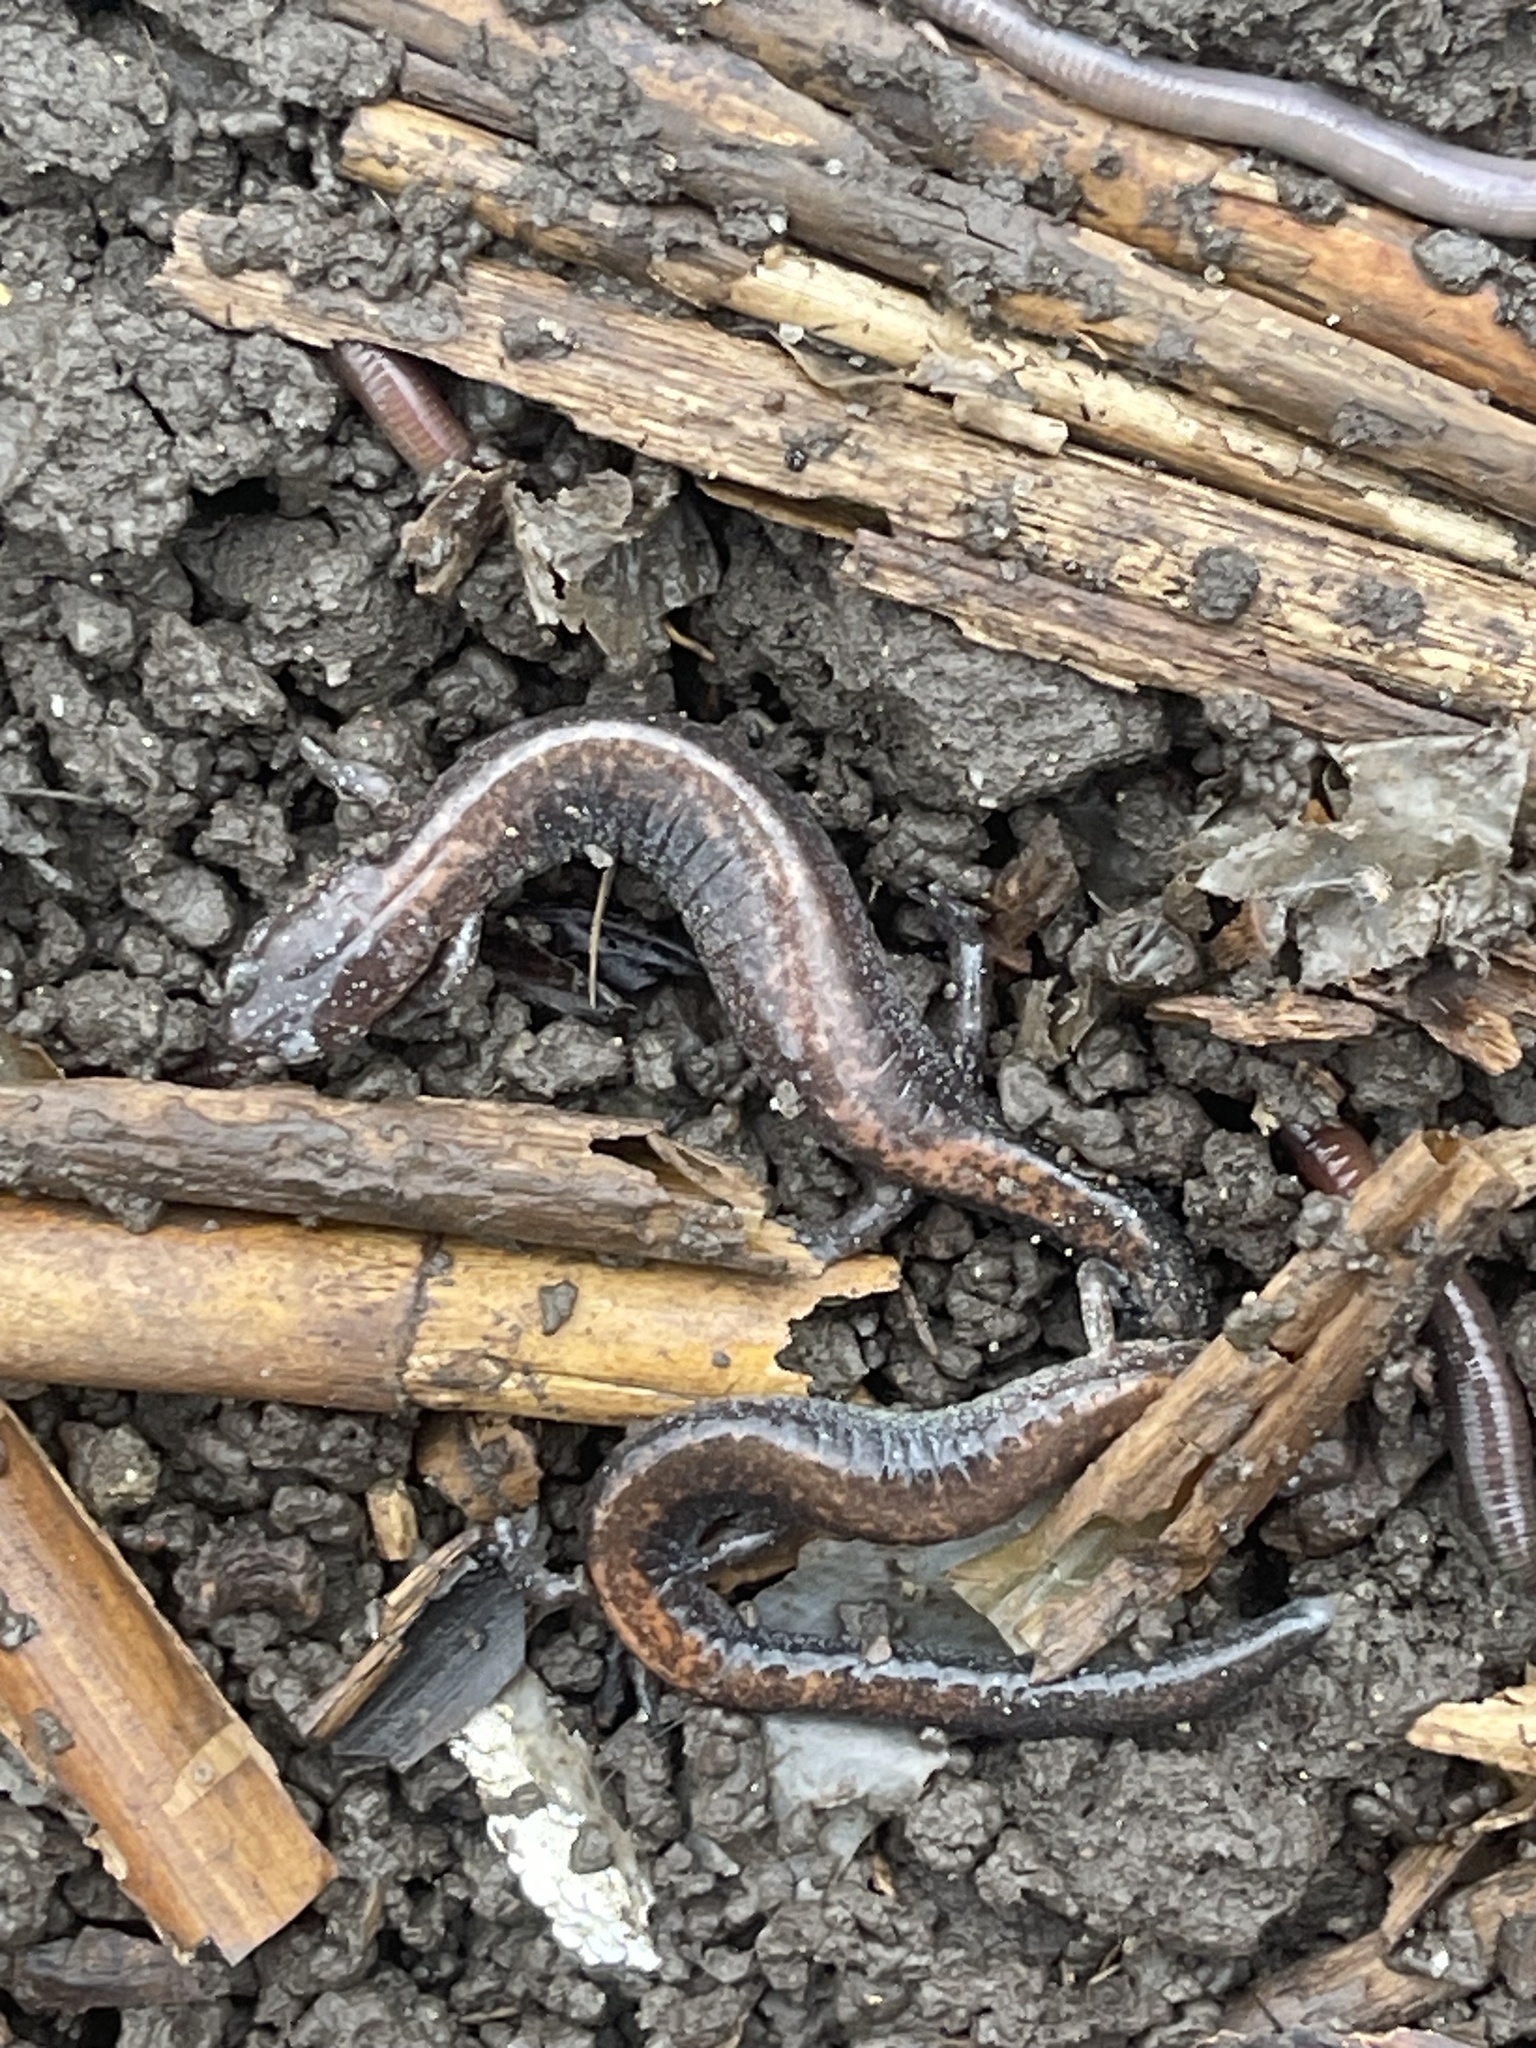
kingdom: Animalia
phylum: Chordata
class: Amphibia
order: Caudata
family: Plethodontidae
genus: Plethodon
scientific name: Plethodon cinereus
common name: Redback salamander
